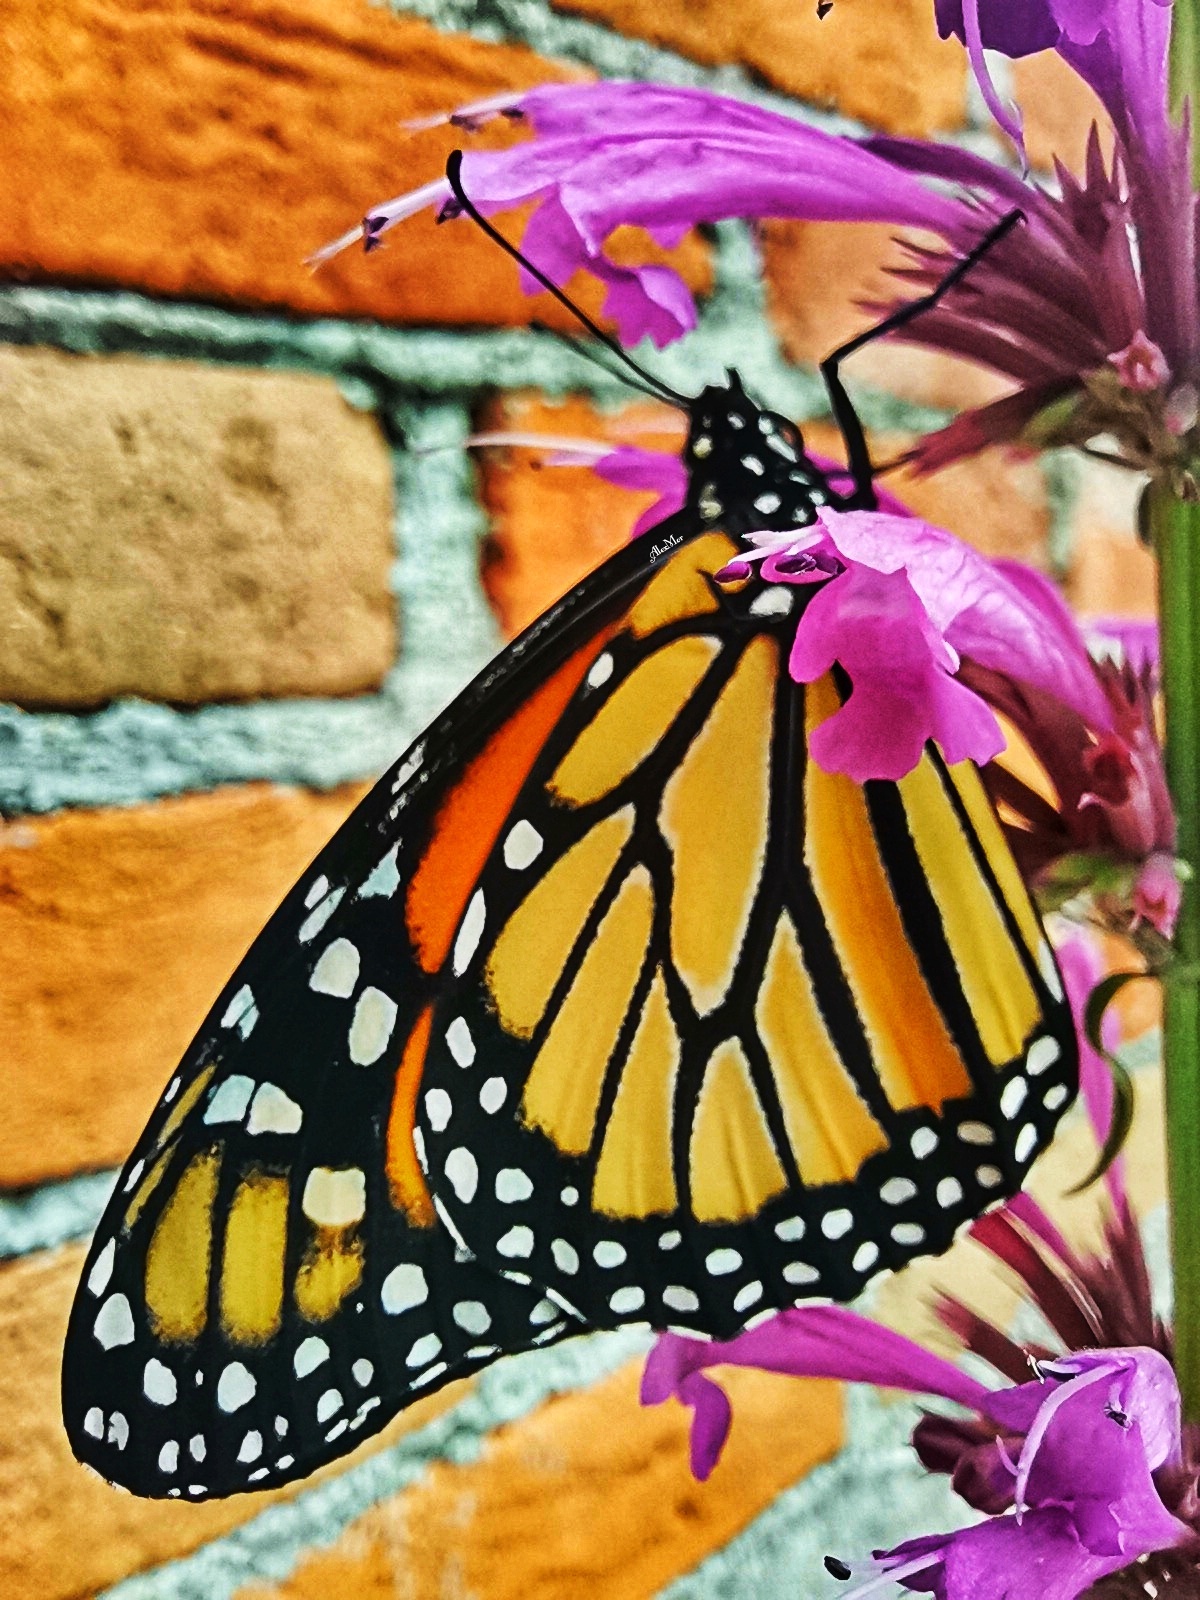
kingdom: Animalia
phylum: Arthropoda
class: Insecta
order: Lepidoptera
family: Nymphalidae
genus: Danaus
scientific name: Danaus plexippus
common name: Monarch
